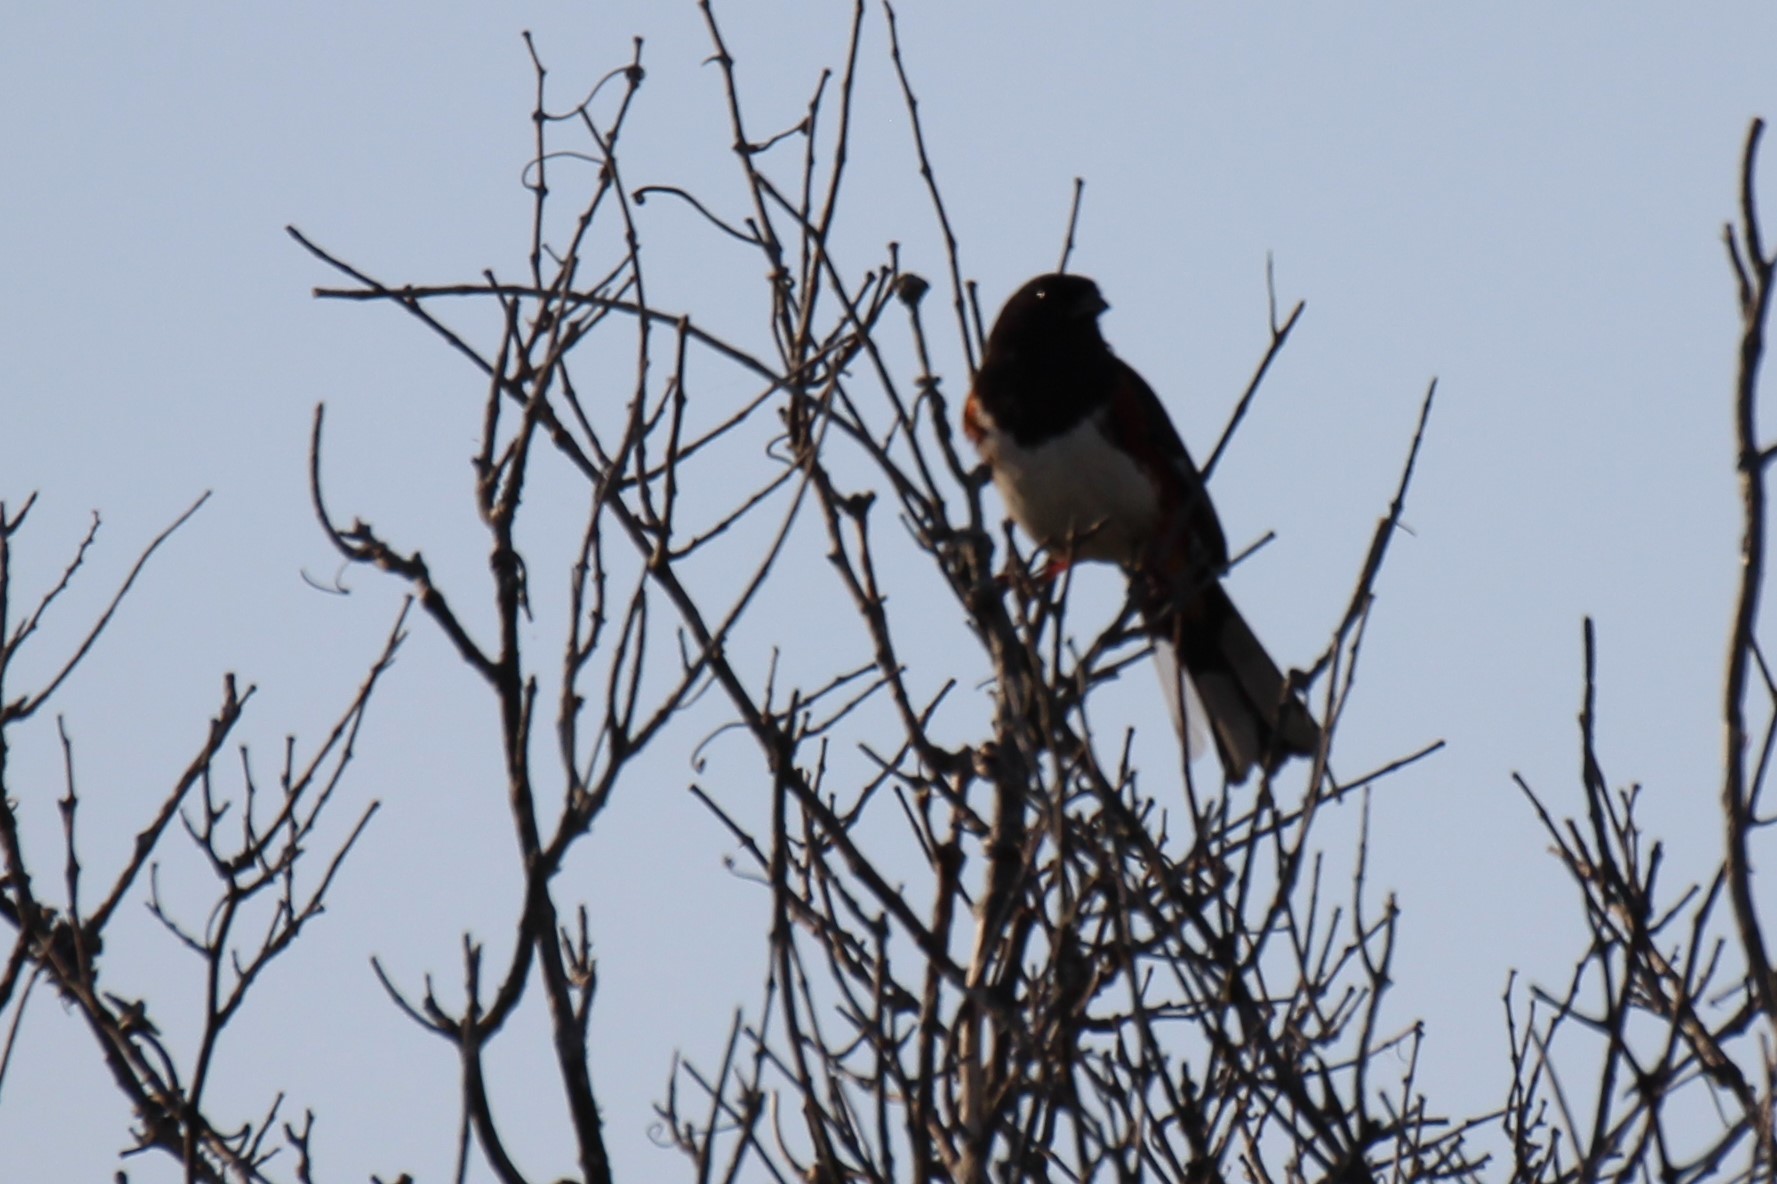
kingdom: Animalia
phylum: Chordata
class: Aves
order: Passeriformes
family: Passerellidae
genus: Pipilo
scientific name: Pipilo erythrophthalmus
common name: Eastern towhee
